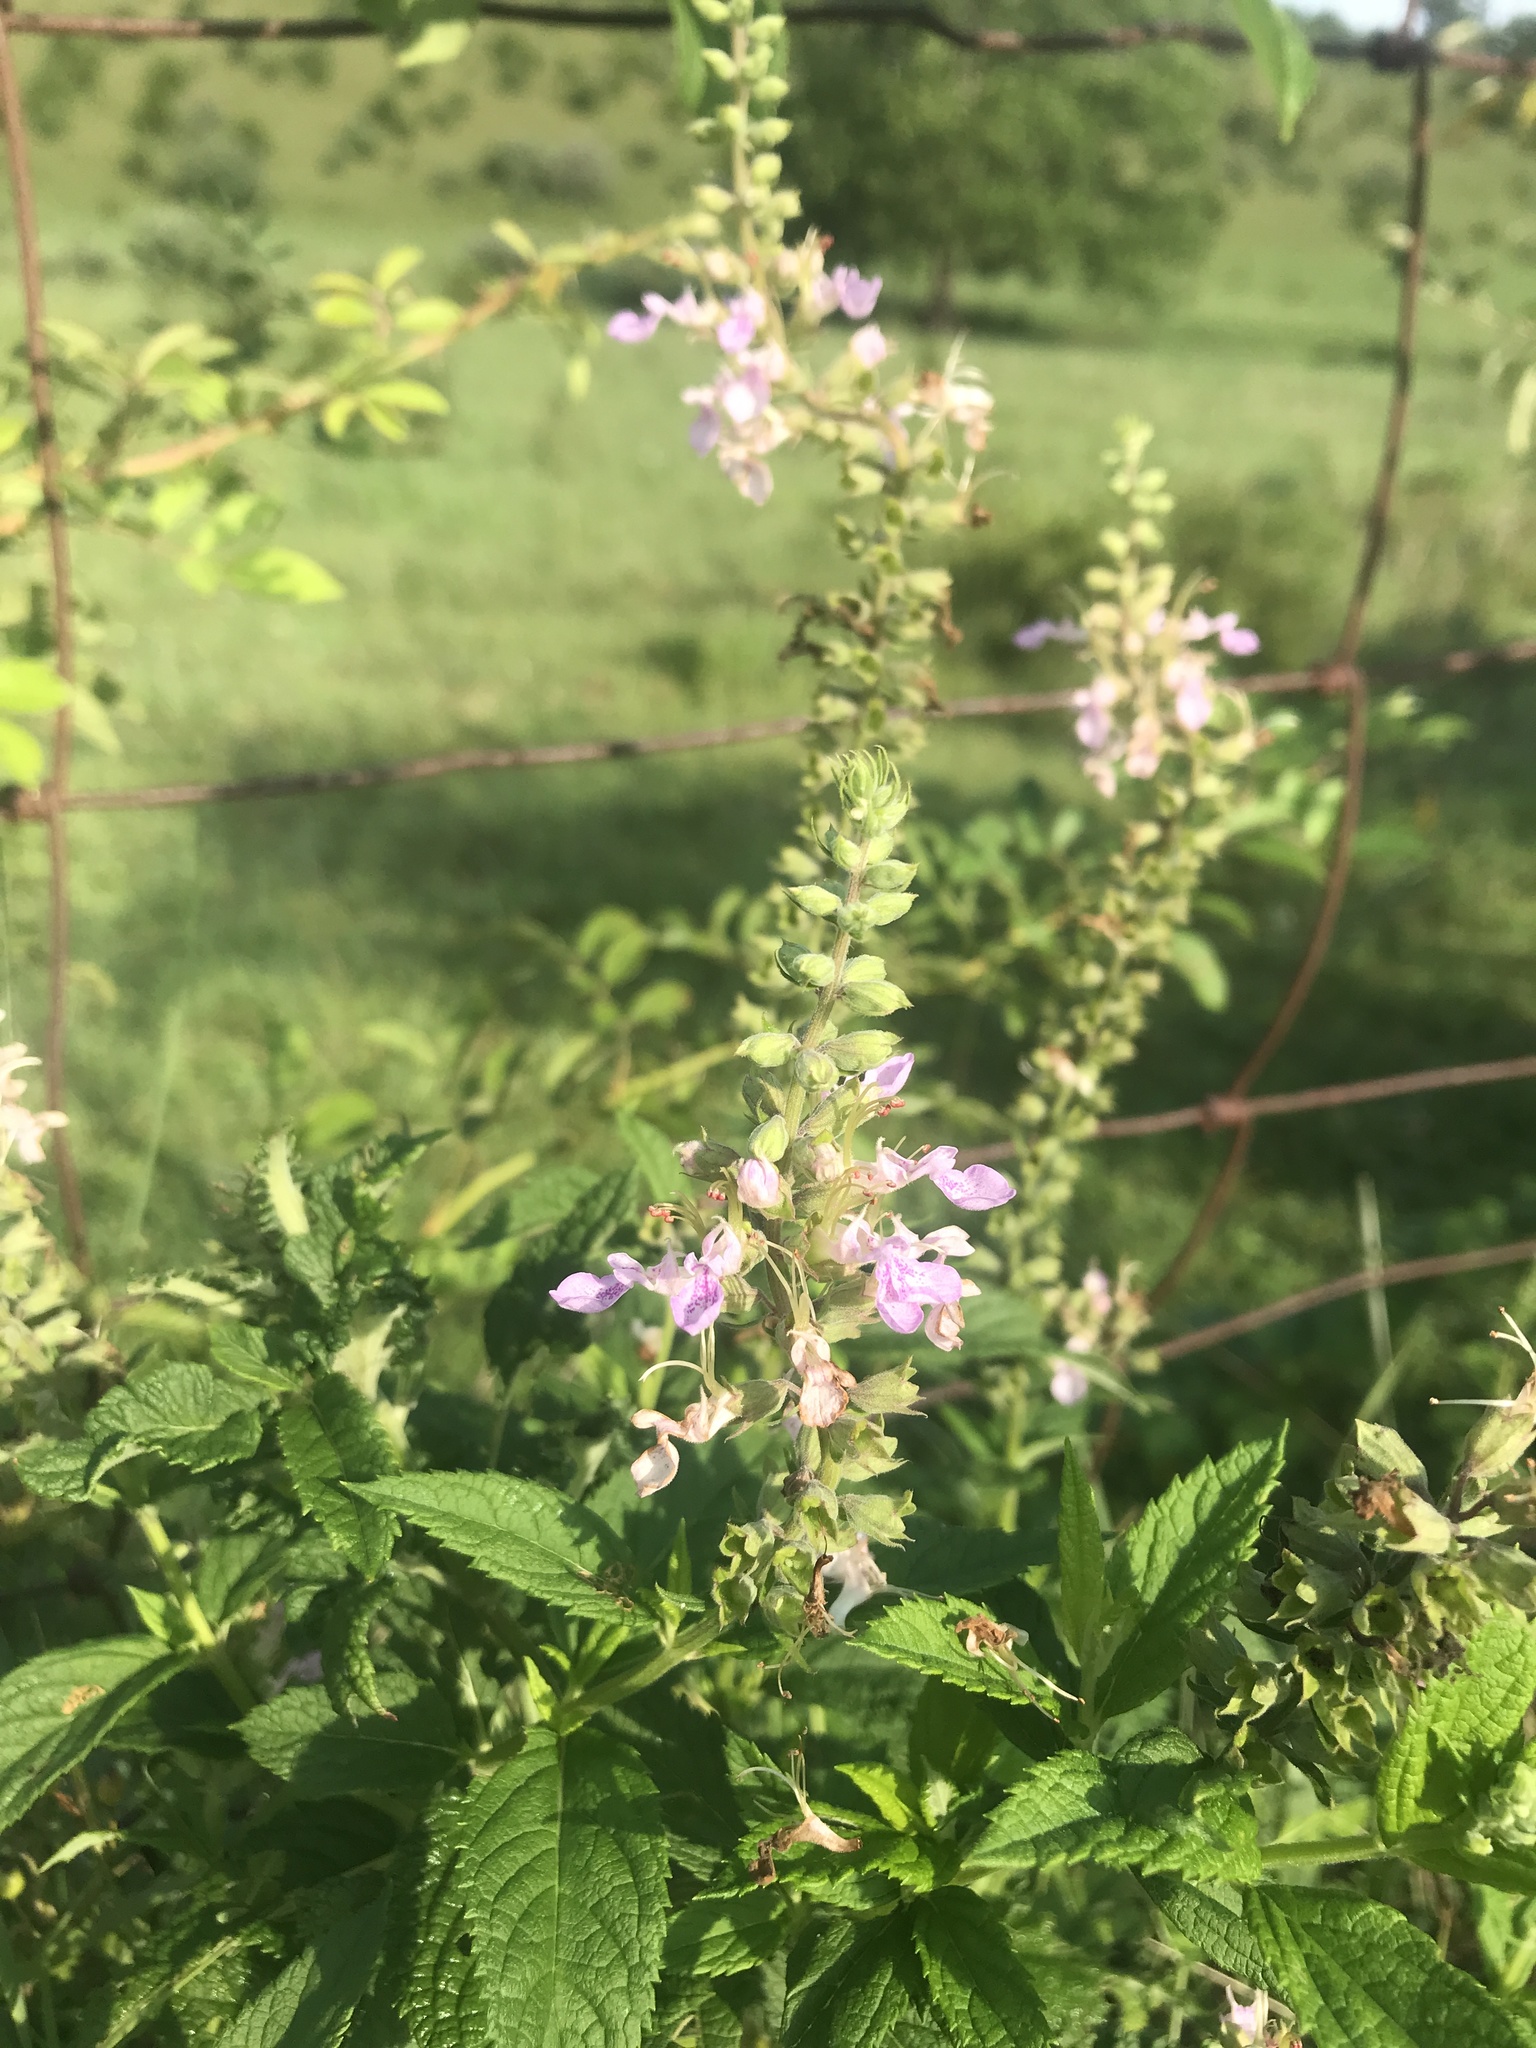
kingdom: Plantae
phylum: Tracheophyta
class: Magnoliopsida
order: Lamiales
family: Lamiaceae
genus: Teucrium
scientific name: Teucrium canadense
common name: American germander
